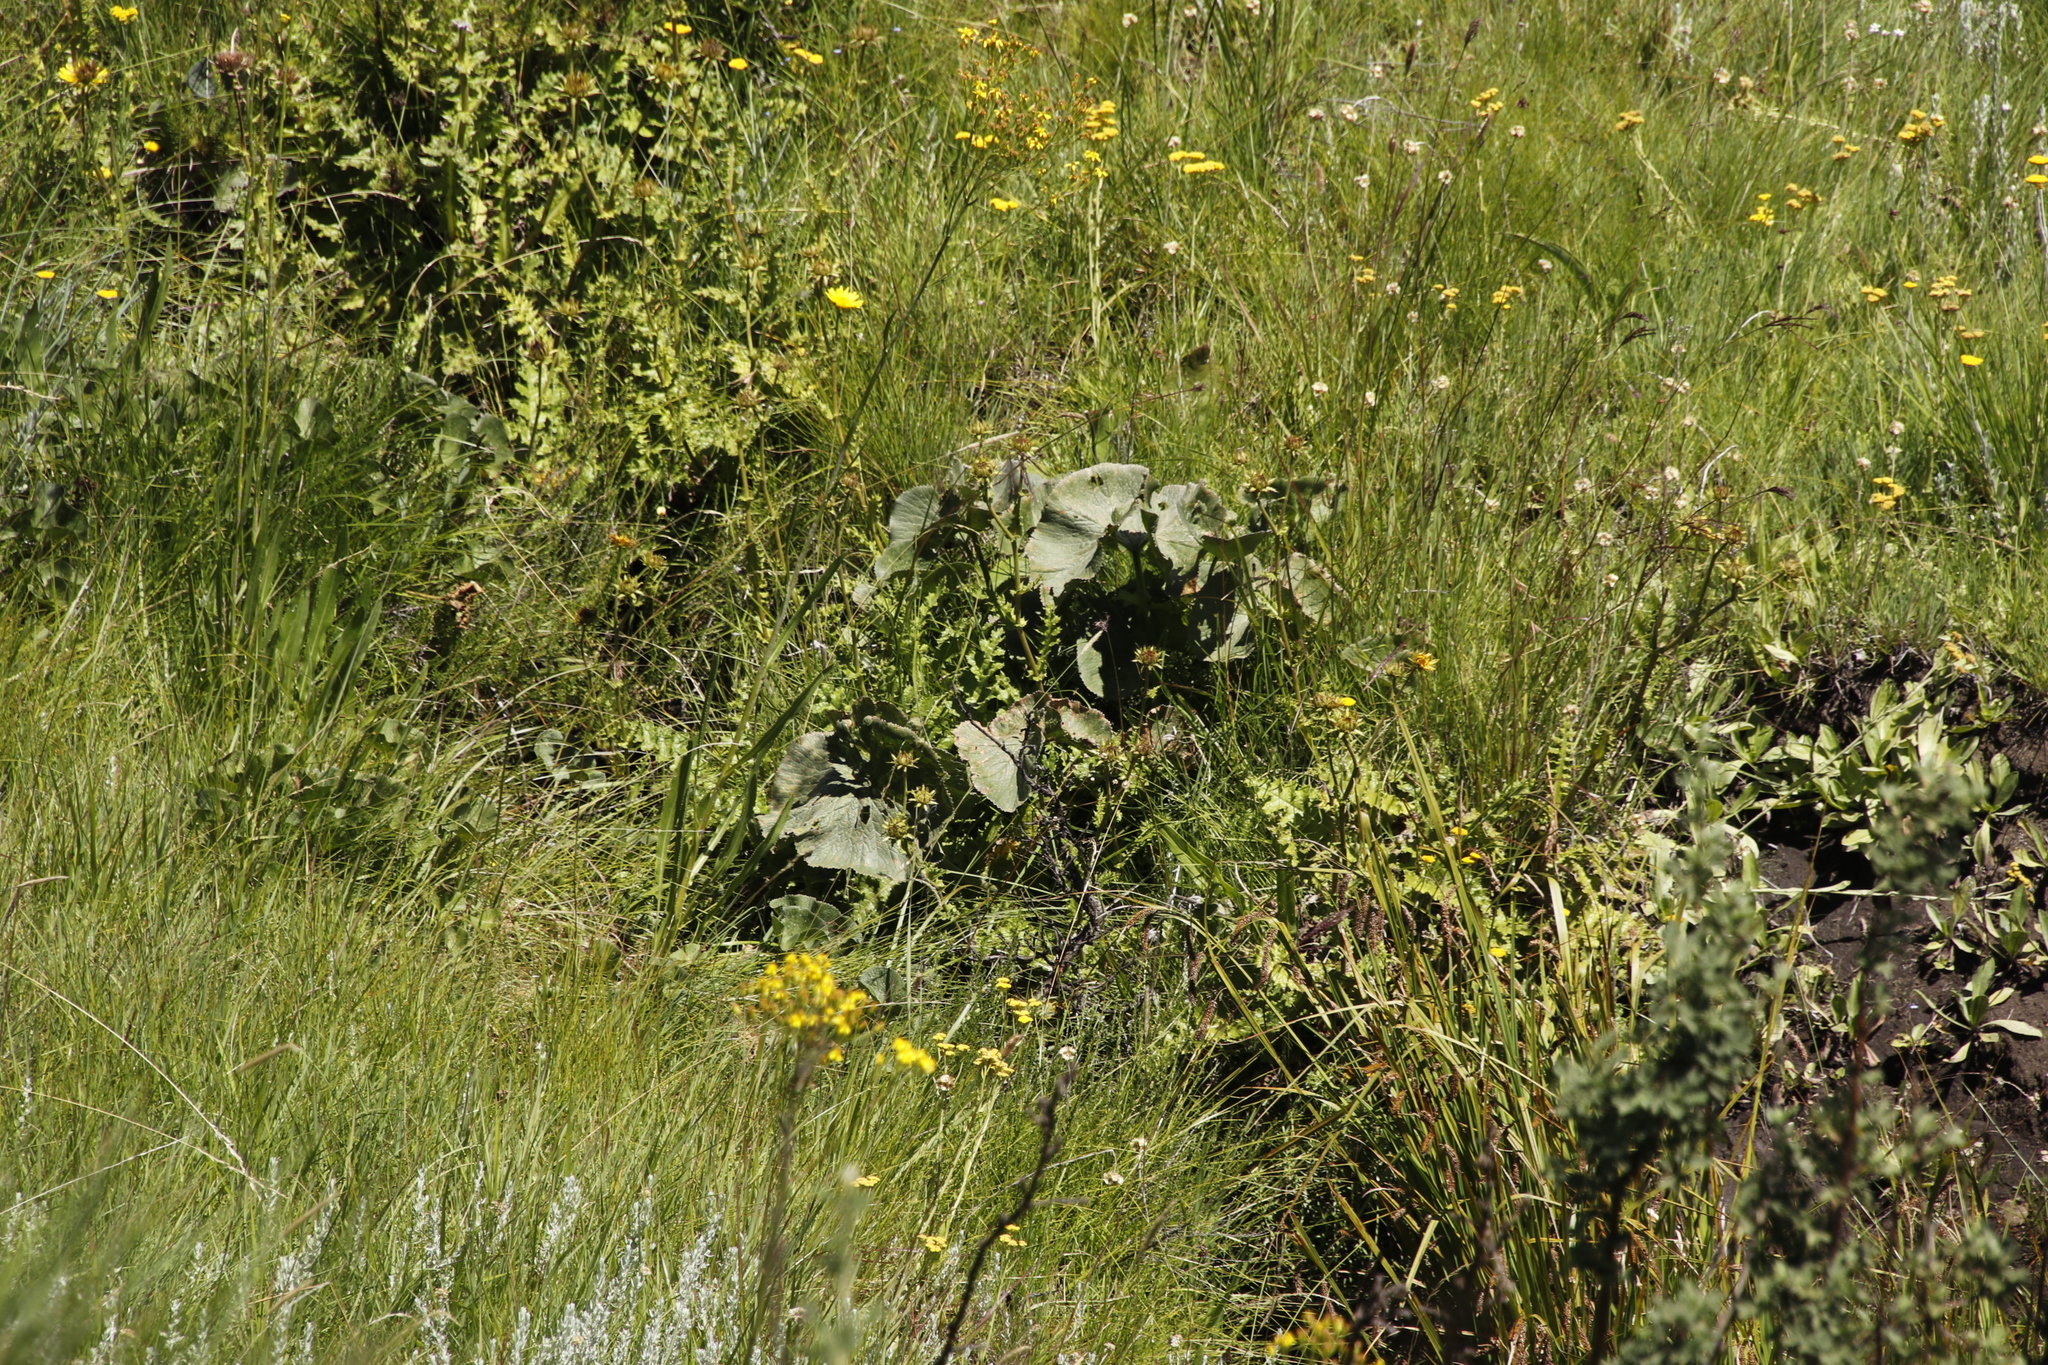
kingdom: Plantae
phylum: Tracheophyta
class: Magnoliopsida
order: Gunnerales
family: Gunneraceae
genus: Gunnera
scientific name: Gunnera perpensa
